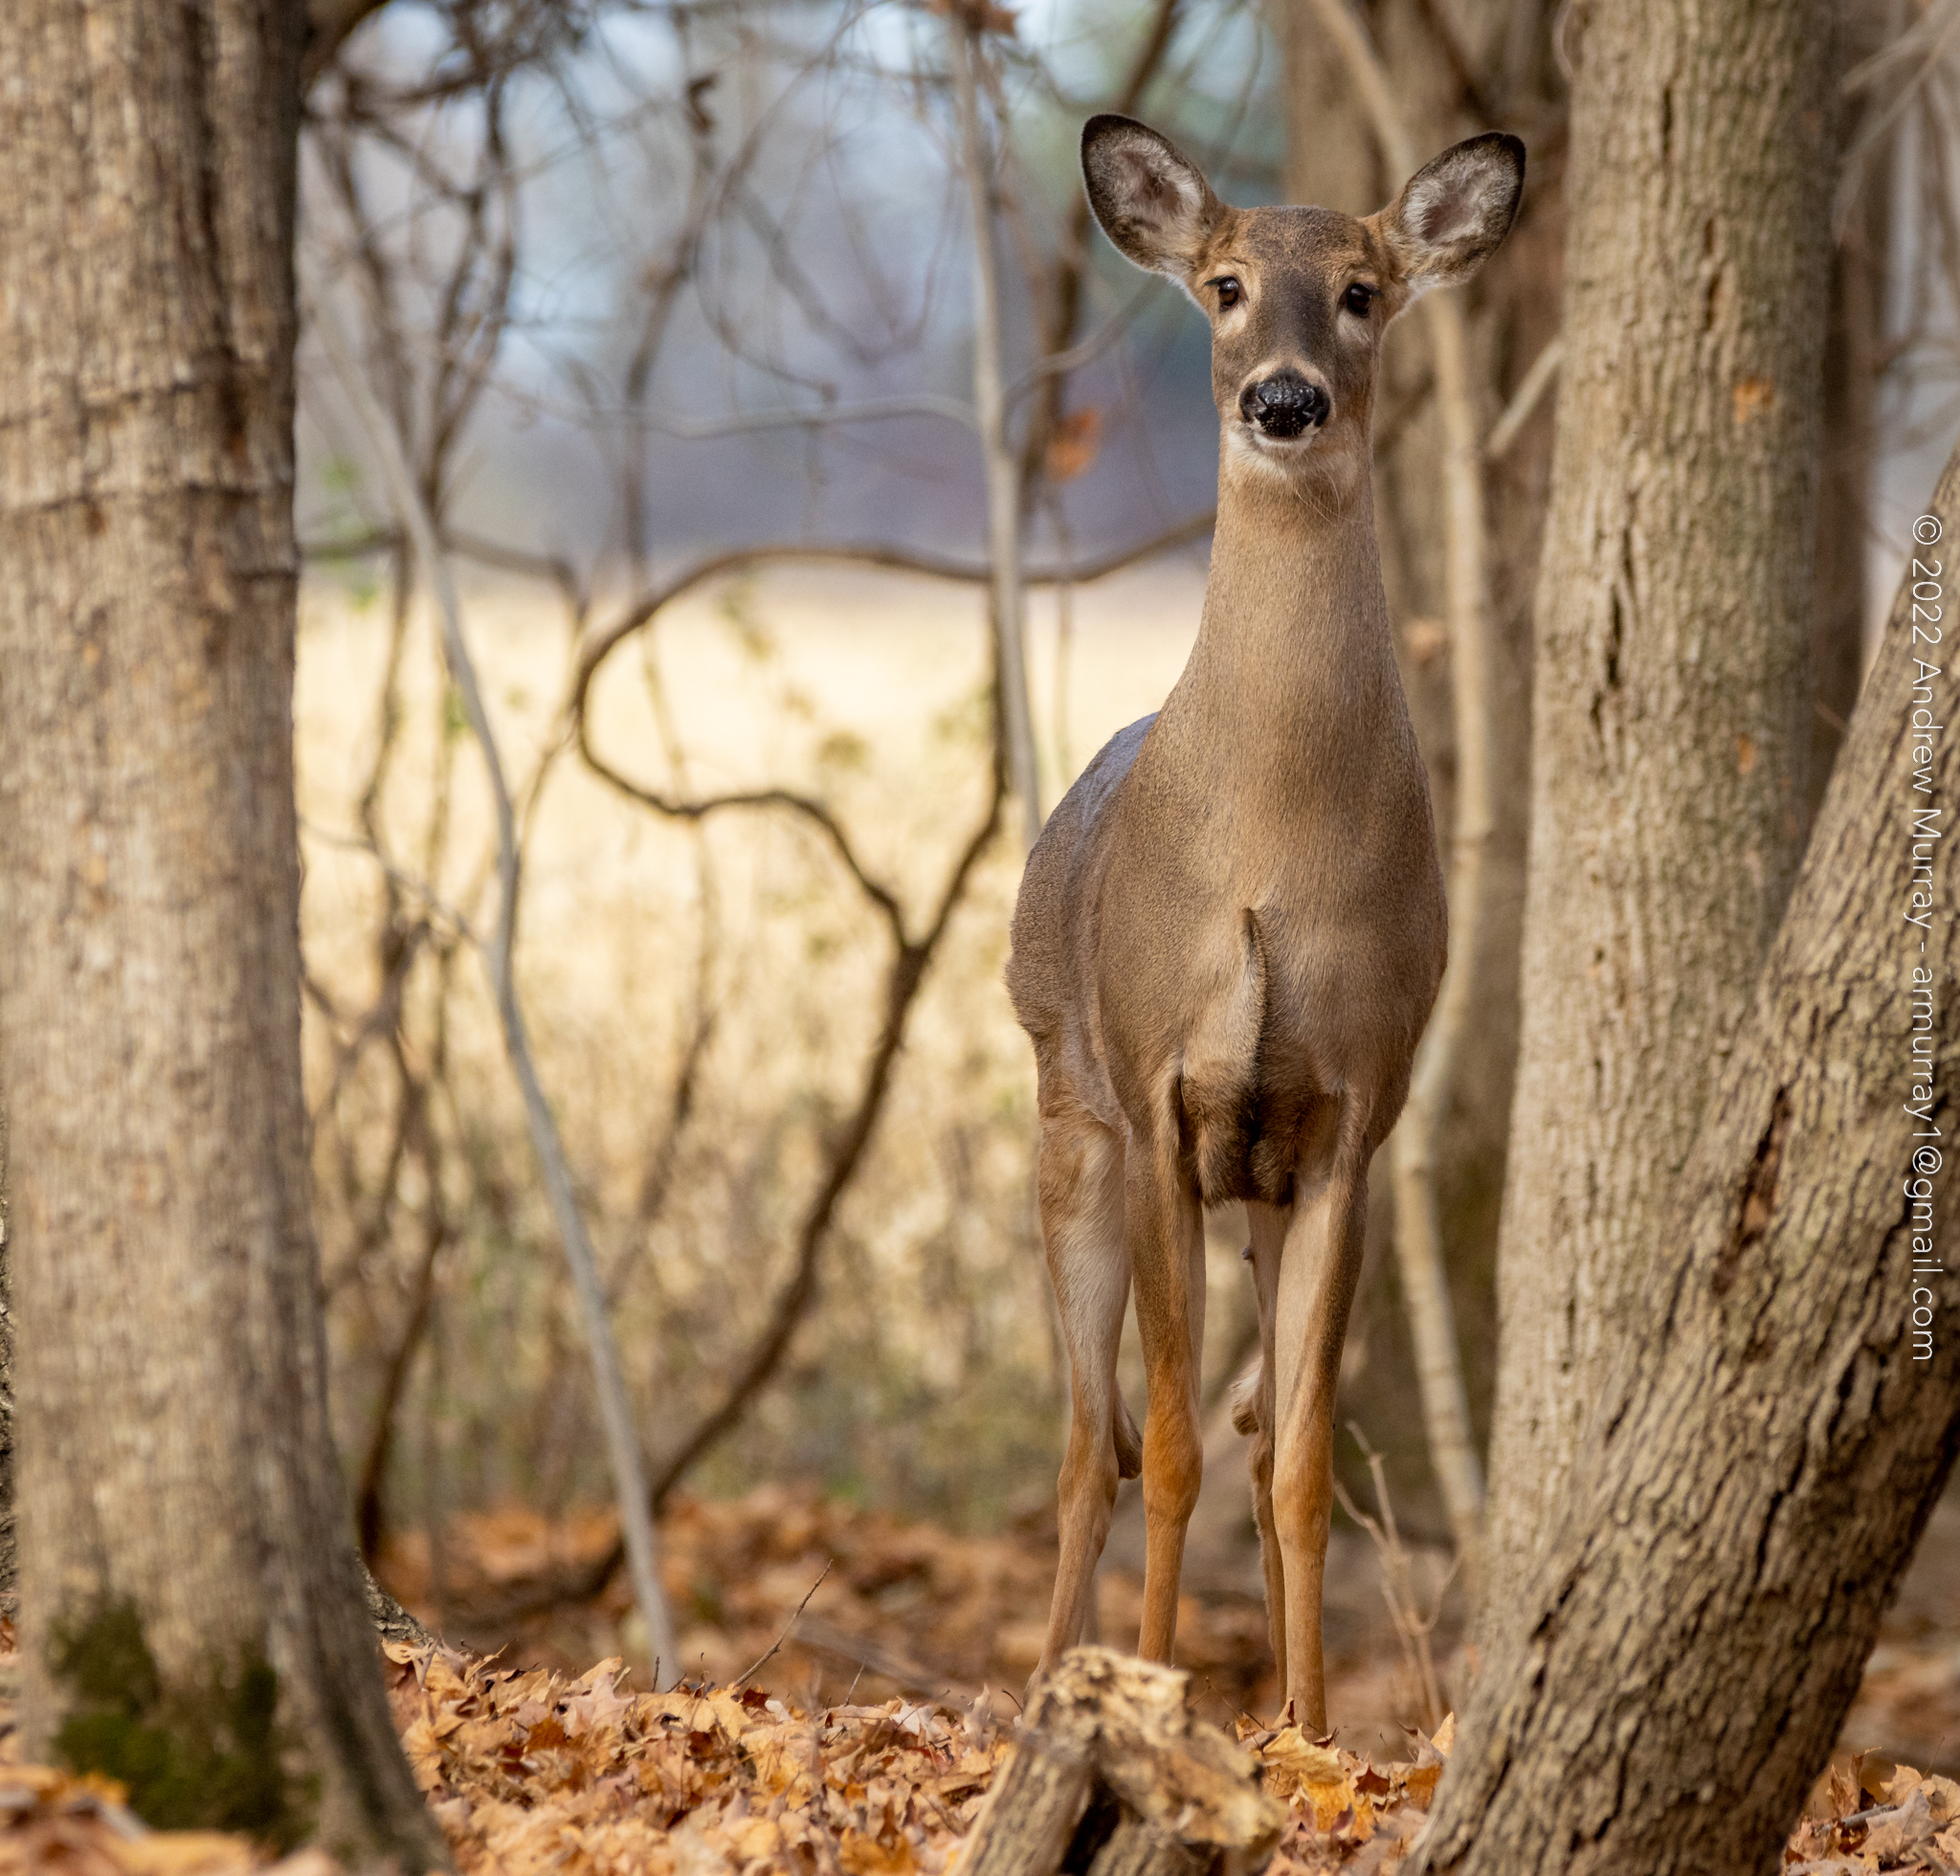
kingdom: Animalia
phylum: Chordata
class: Mammalia
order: Artiodactyla
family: Cervidae
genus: Odocoileus
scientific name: Odocoileus virginianus
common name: White-tailed deer
